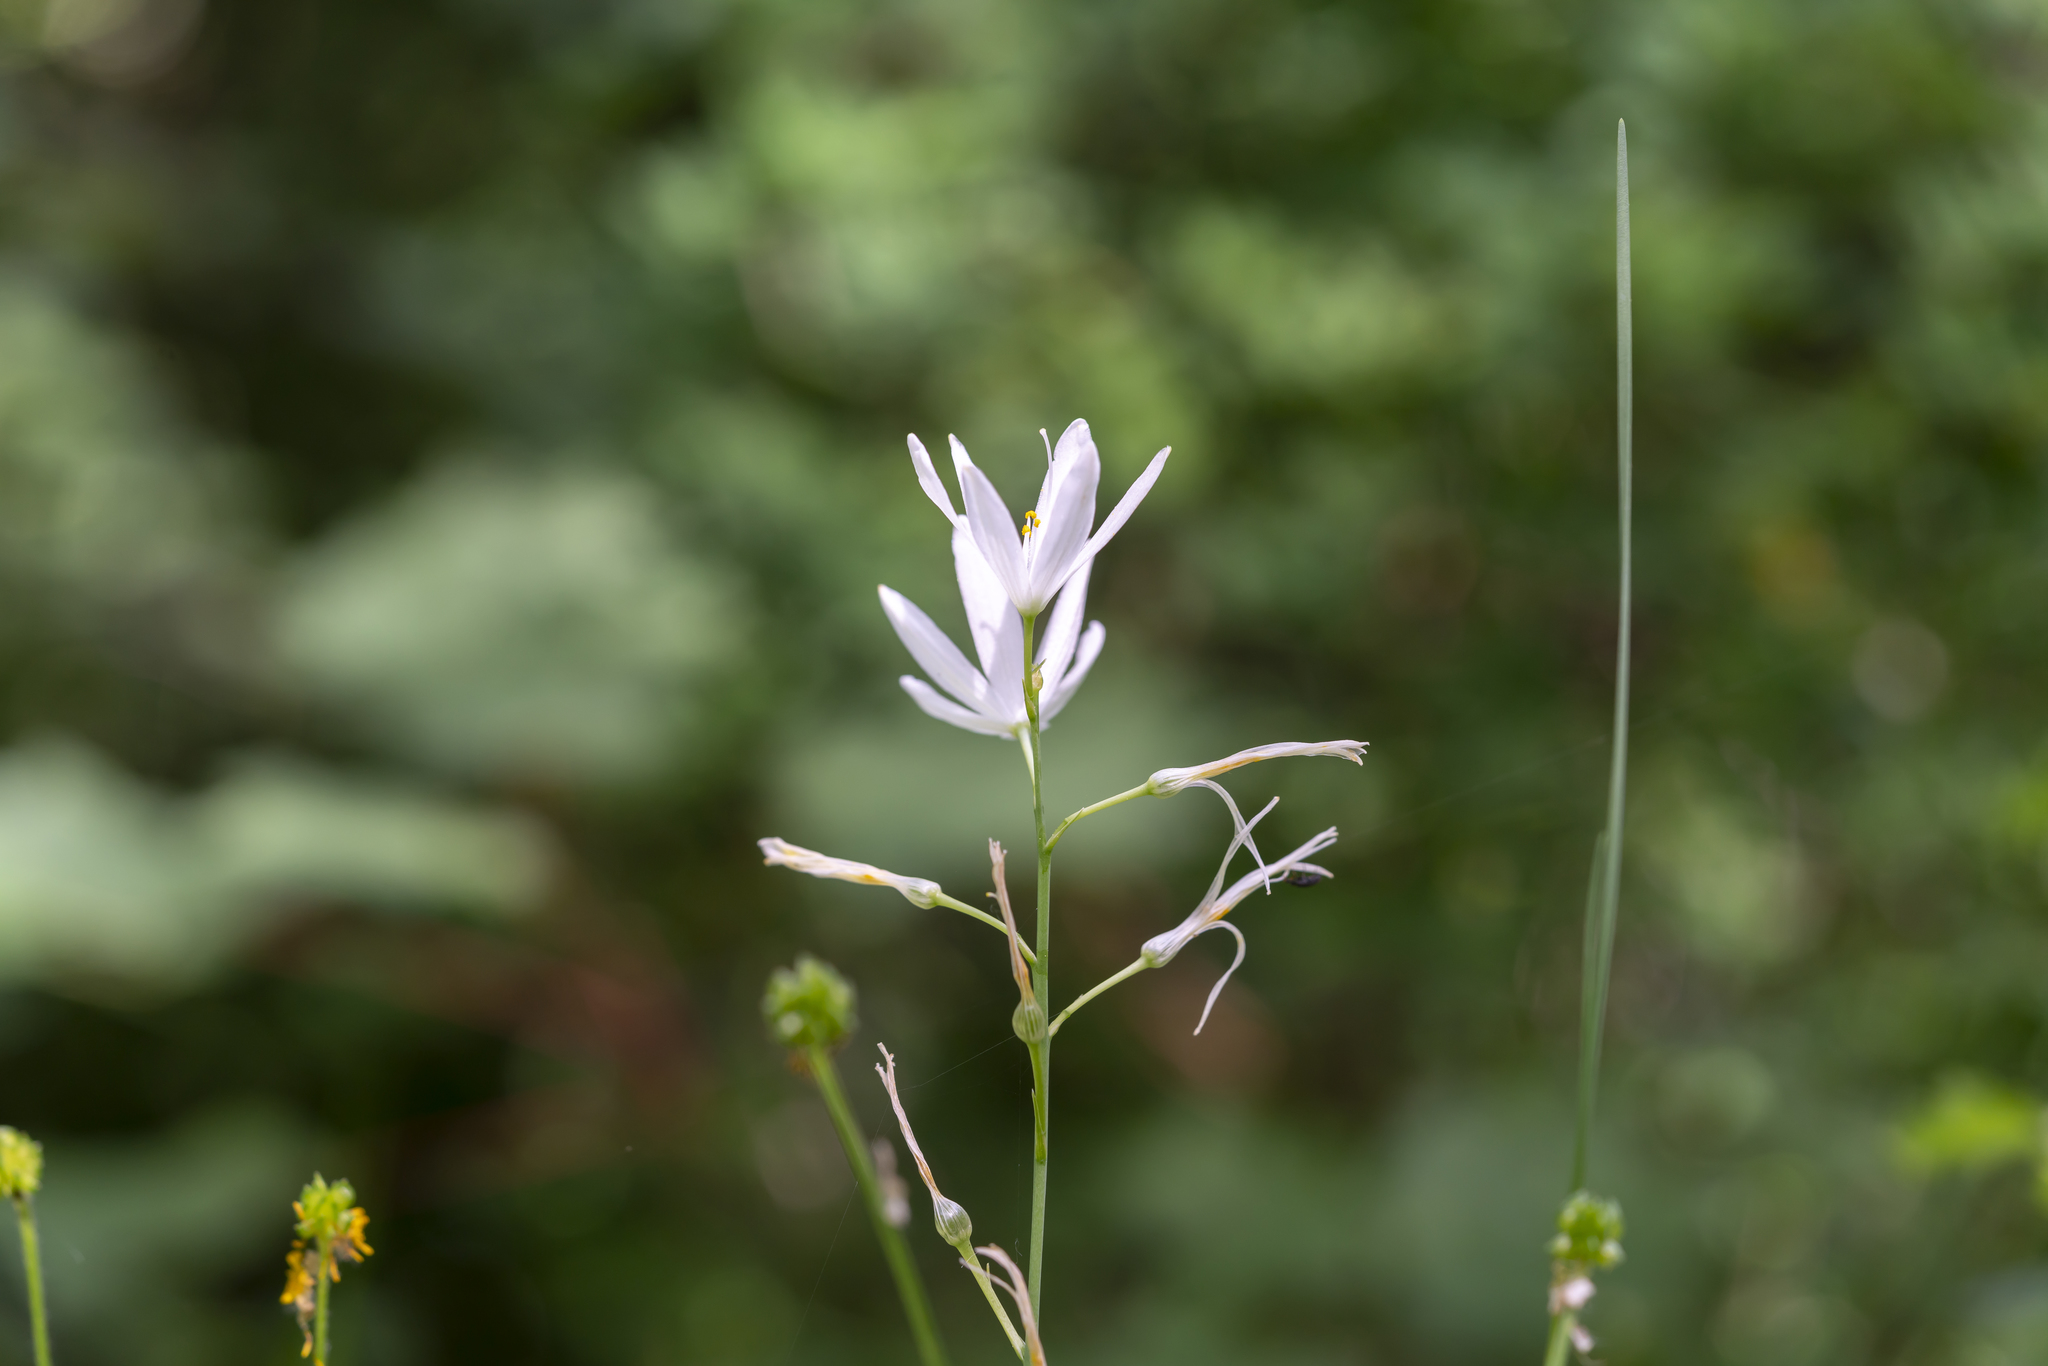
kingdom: Plantae
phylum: Tracheophyta
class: Liliopsida
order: Asparagales
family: Asparagaceae
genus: Anthericum
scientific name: Anthericum liliago
